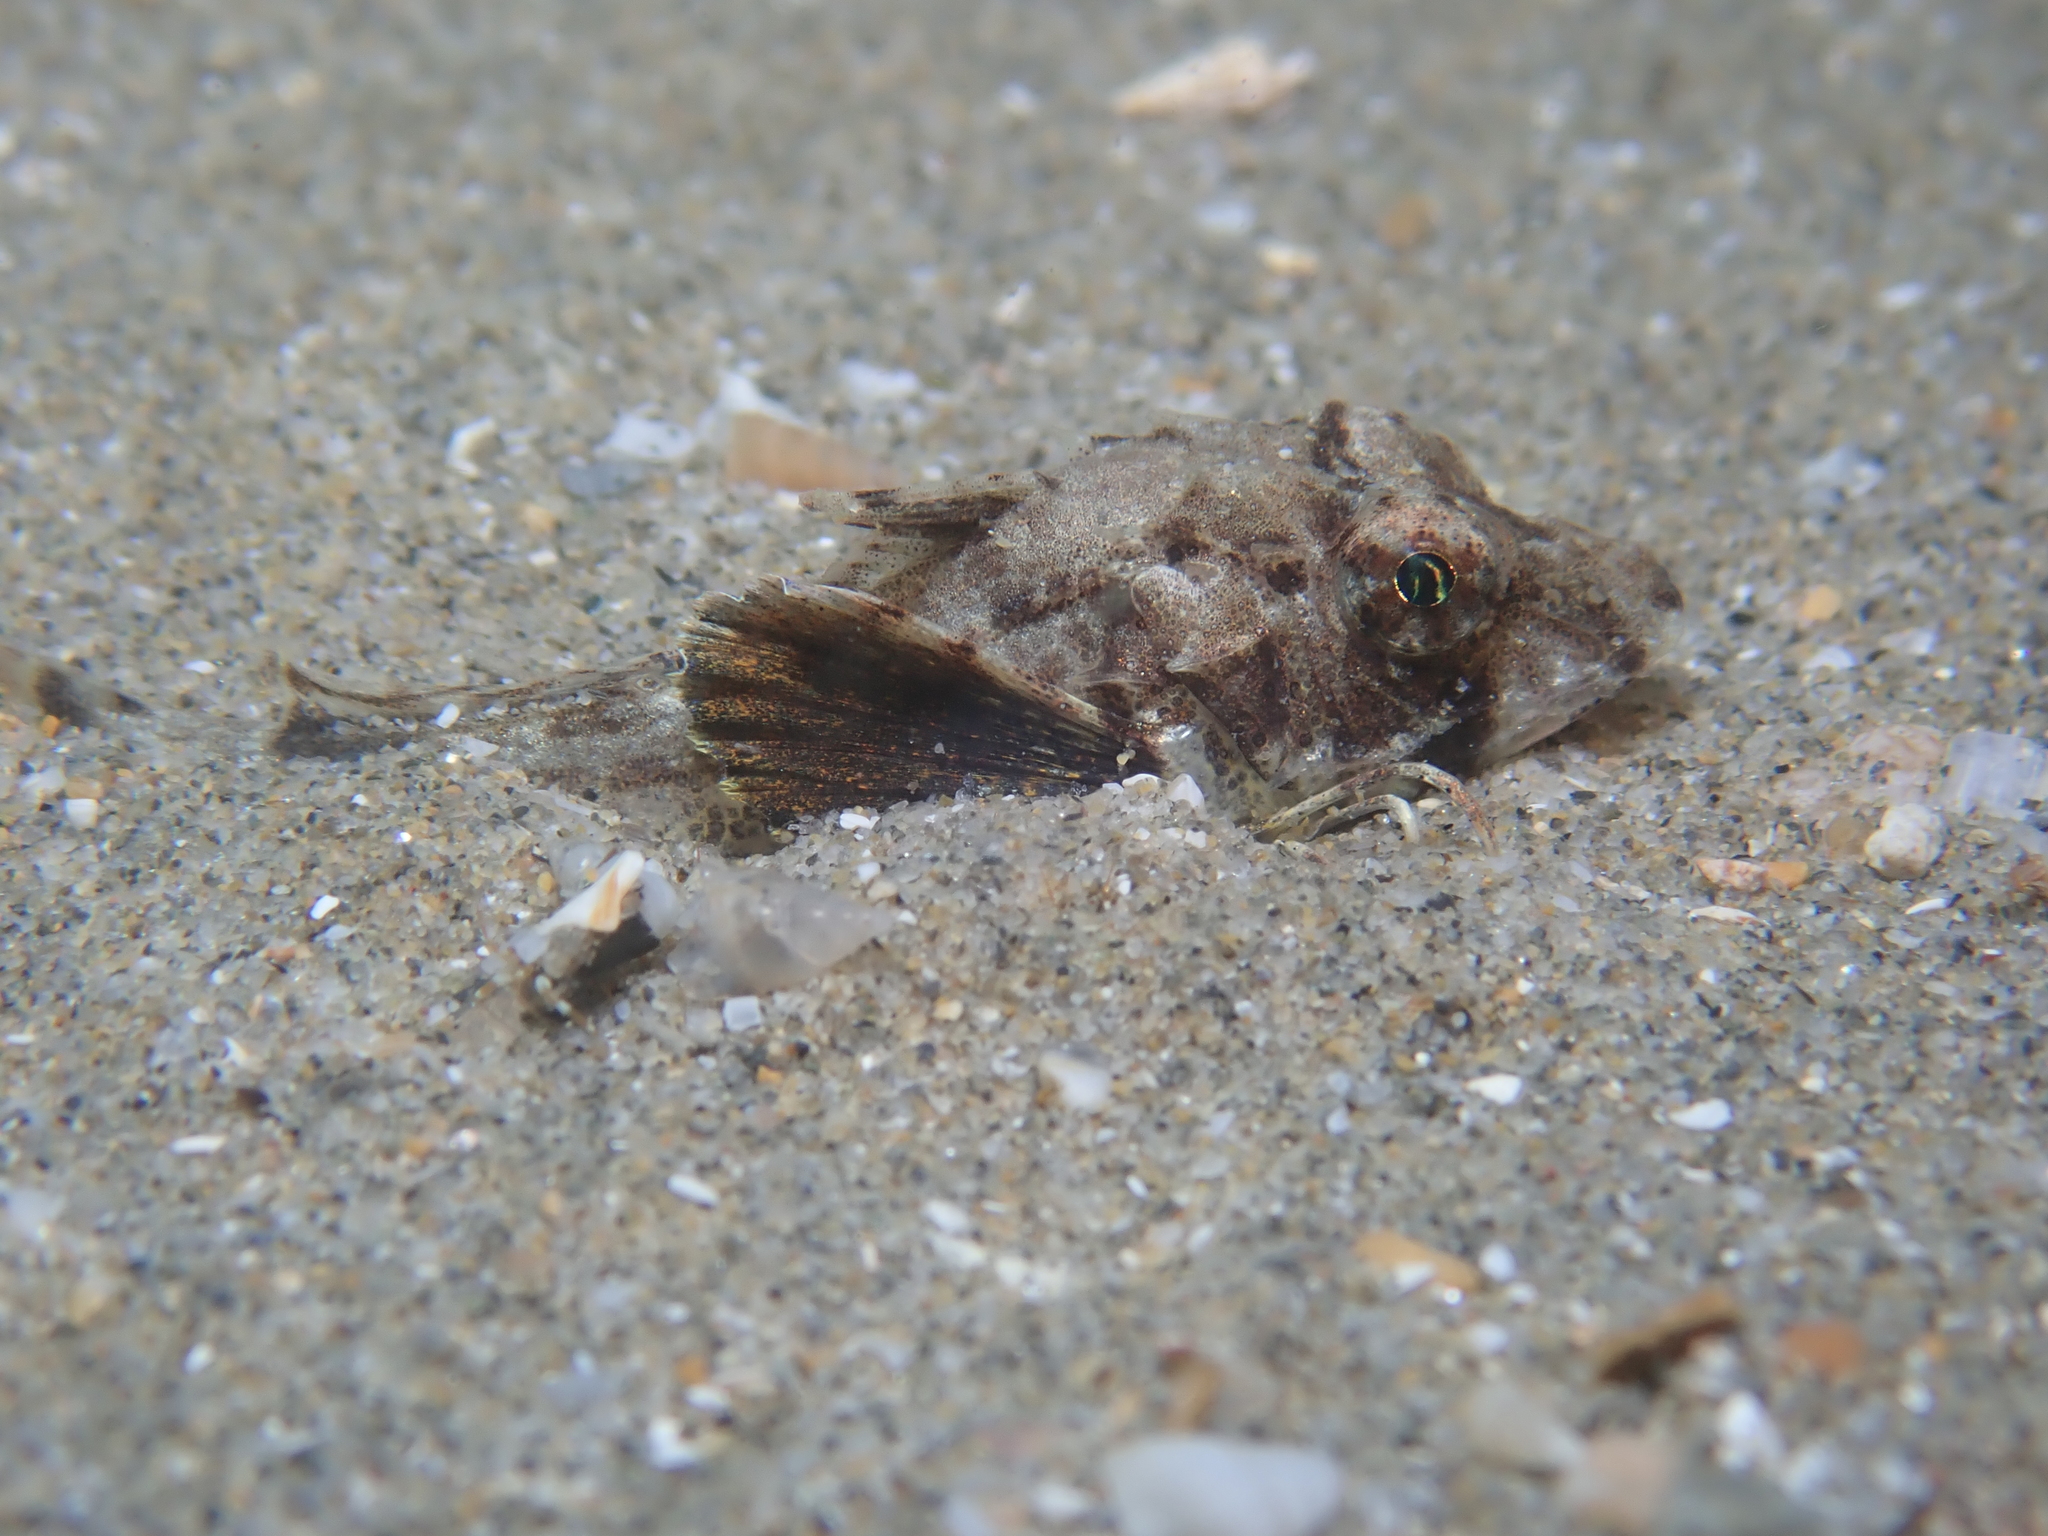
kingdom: Animalia
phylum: Chordata
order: Scorpaeniformes
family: Triglidae
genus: Chelidonichthys
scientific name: Chelidonichthys lucerna
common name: Tub gurnard
